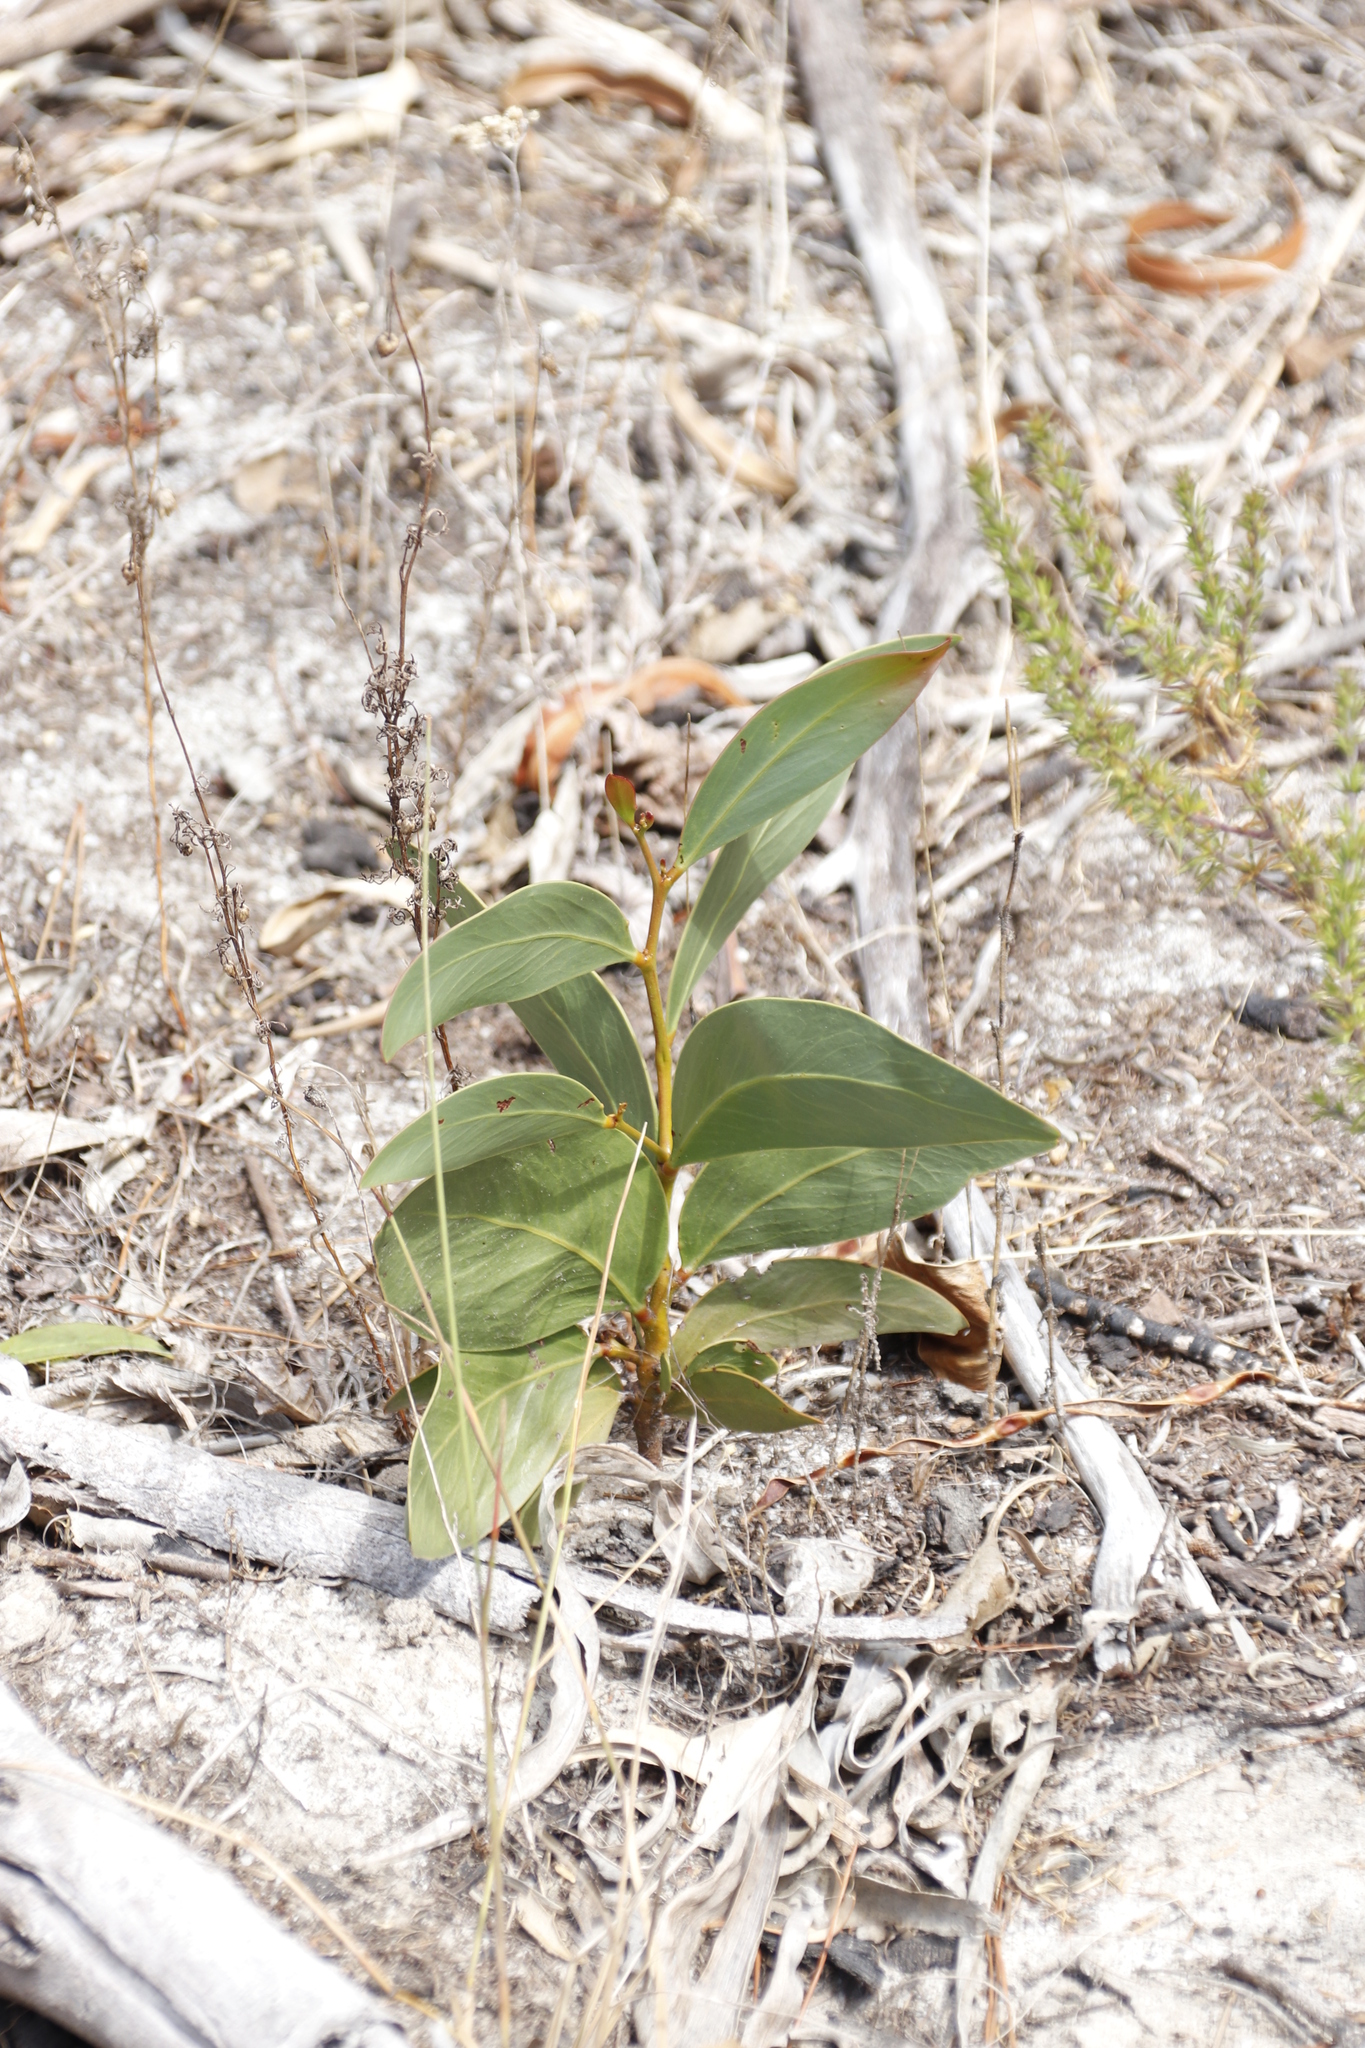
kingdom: Plantae
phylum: Tracheophyta
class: Magnoliopsida
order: Fabales
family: Fabaceae
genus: Acacia
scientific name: Acacia pycnantha
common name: Golden wattle
